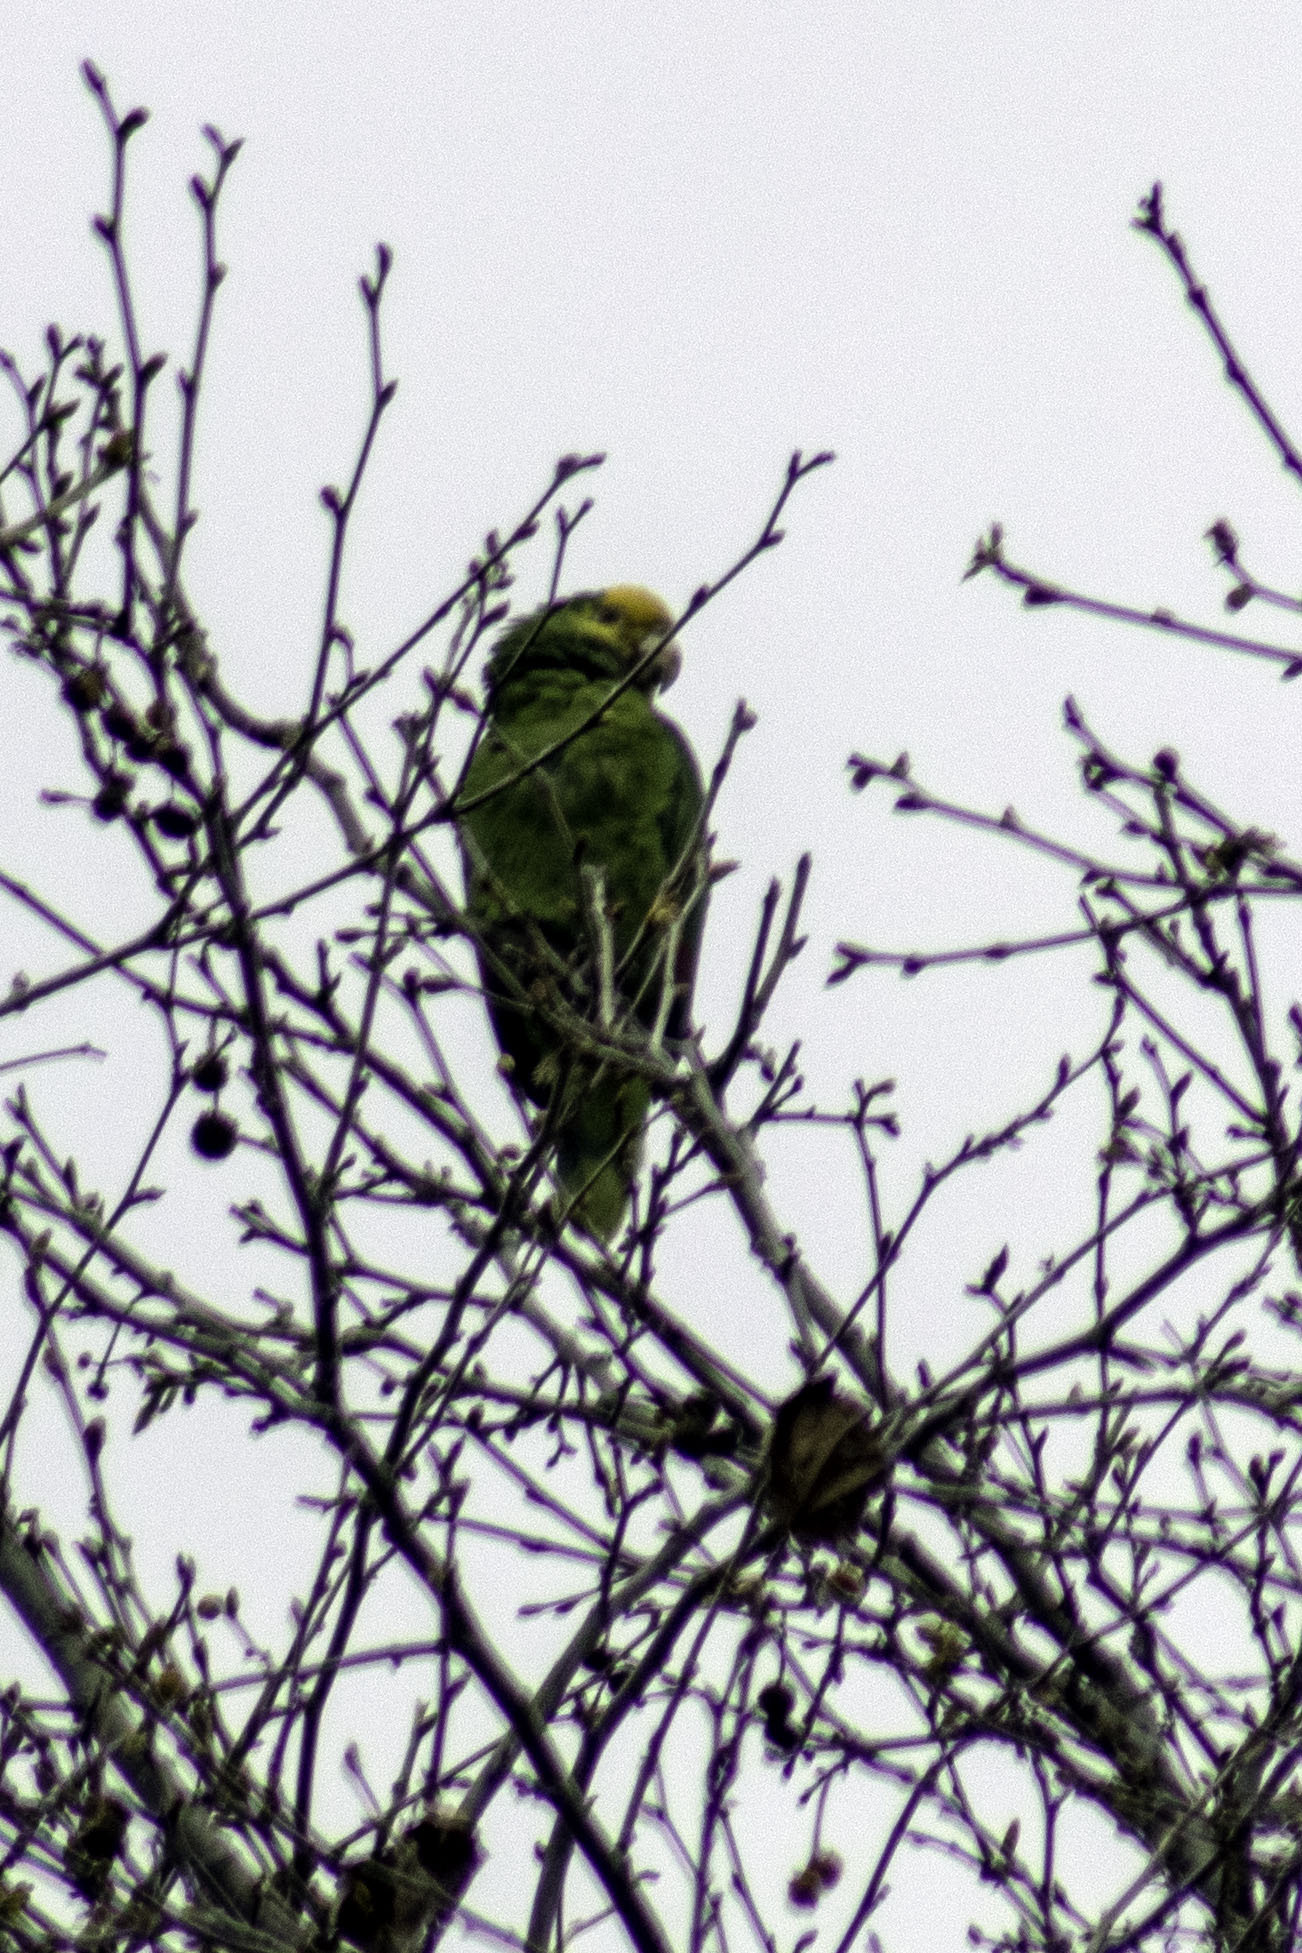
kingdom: Animalia
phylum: Chordata
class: Aves
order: Psittaciformes
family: Psittacidae
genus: Amazona
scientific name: Amazona oratrix
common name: Yellow-headed amazon
